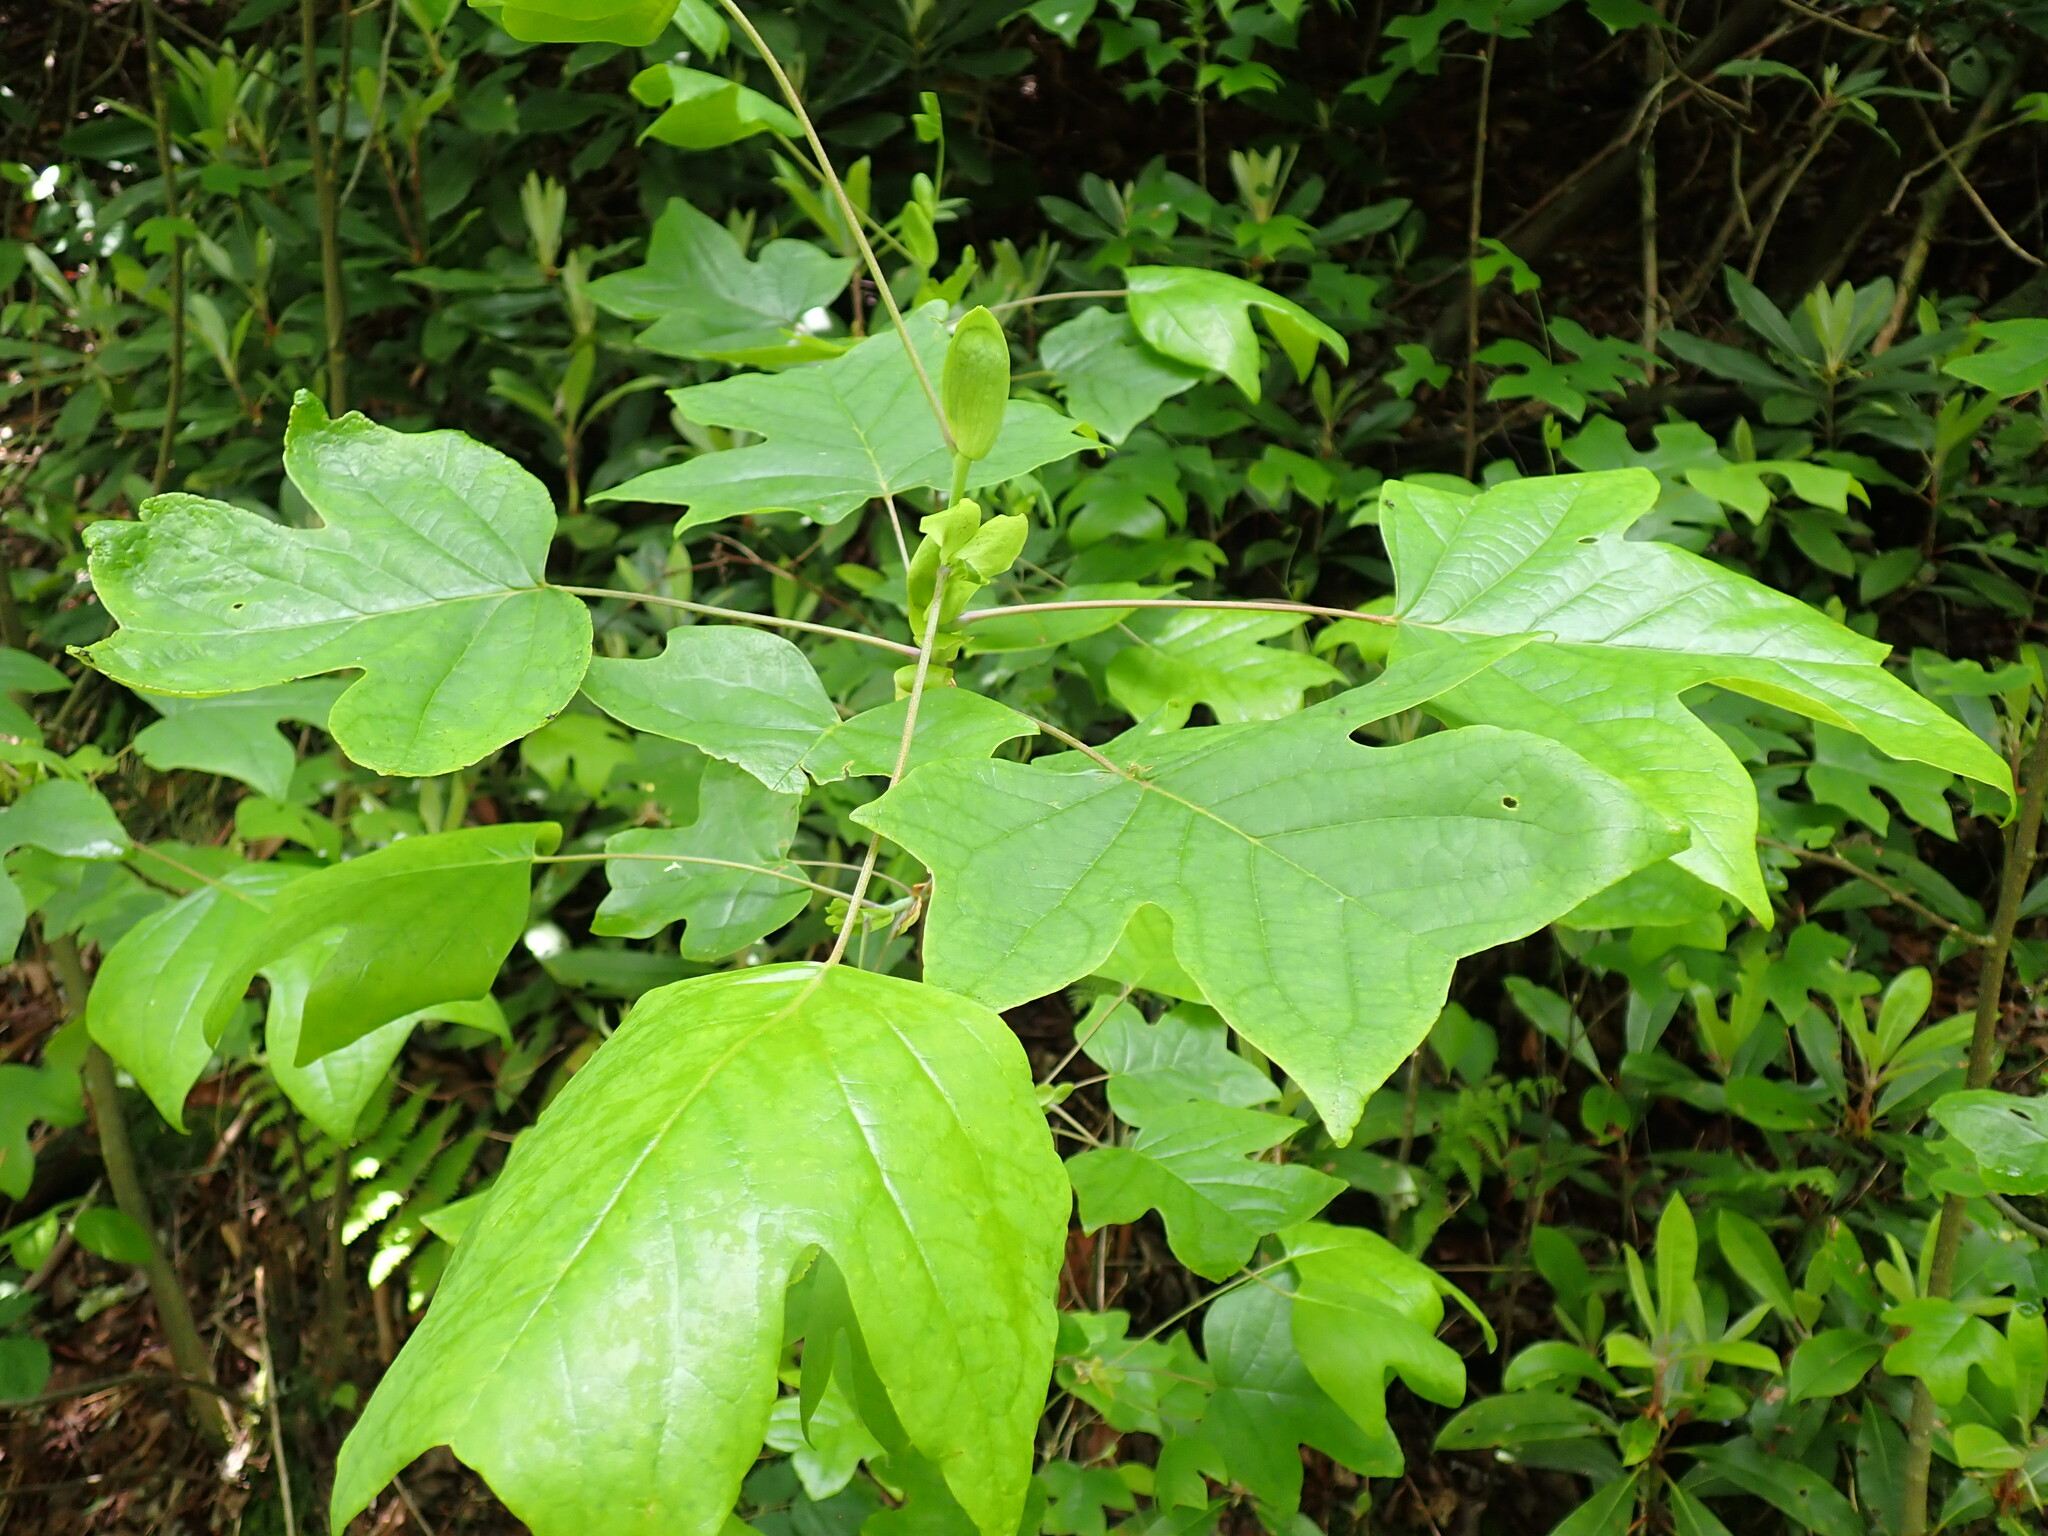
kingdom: Plantae
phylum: Tracheophyta
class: Magnoliopsida
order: Magnoliales
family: Magnoliaceae
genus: Liriodendron
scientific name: Liriodendron tulipifera
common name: Tulip tree
